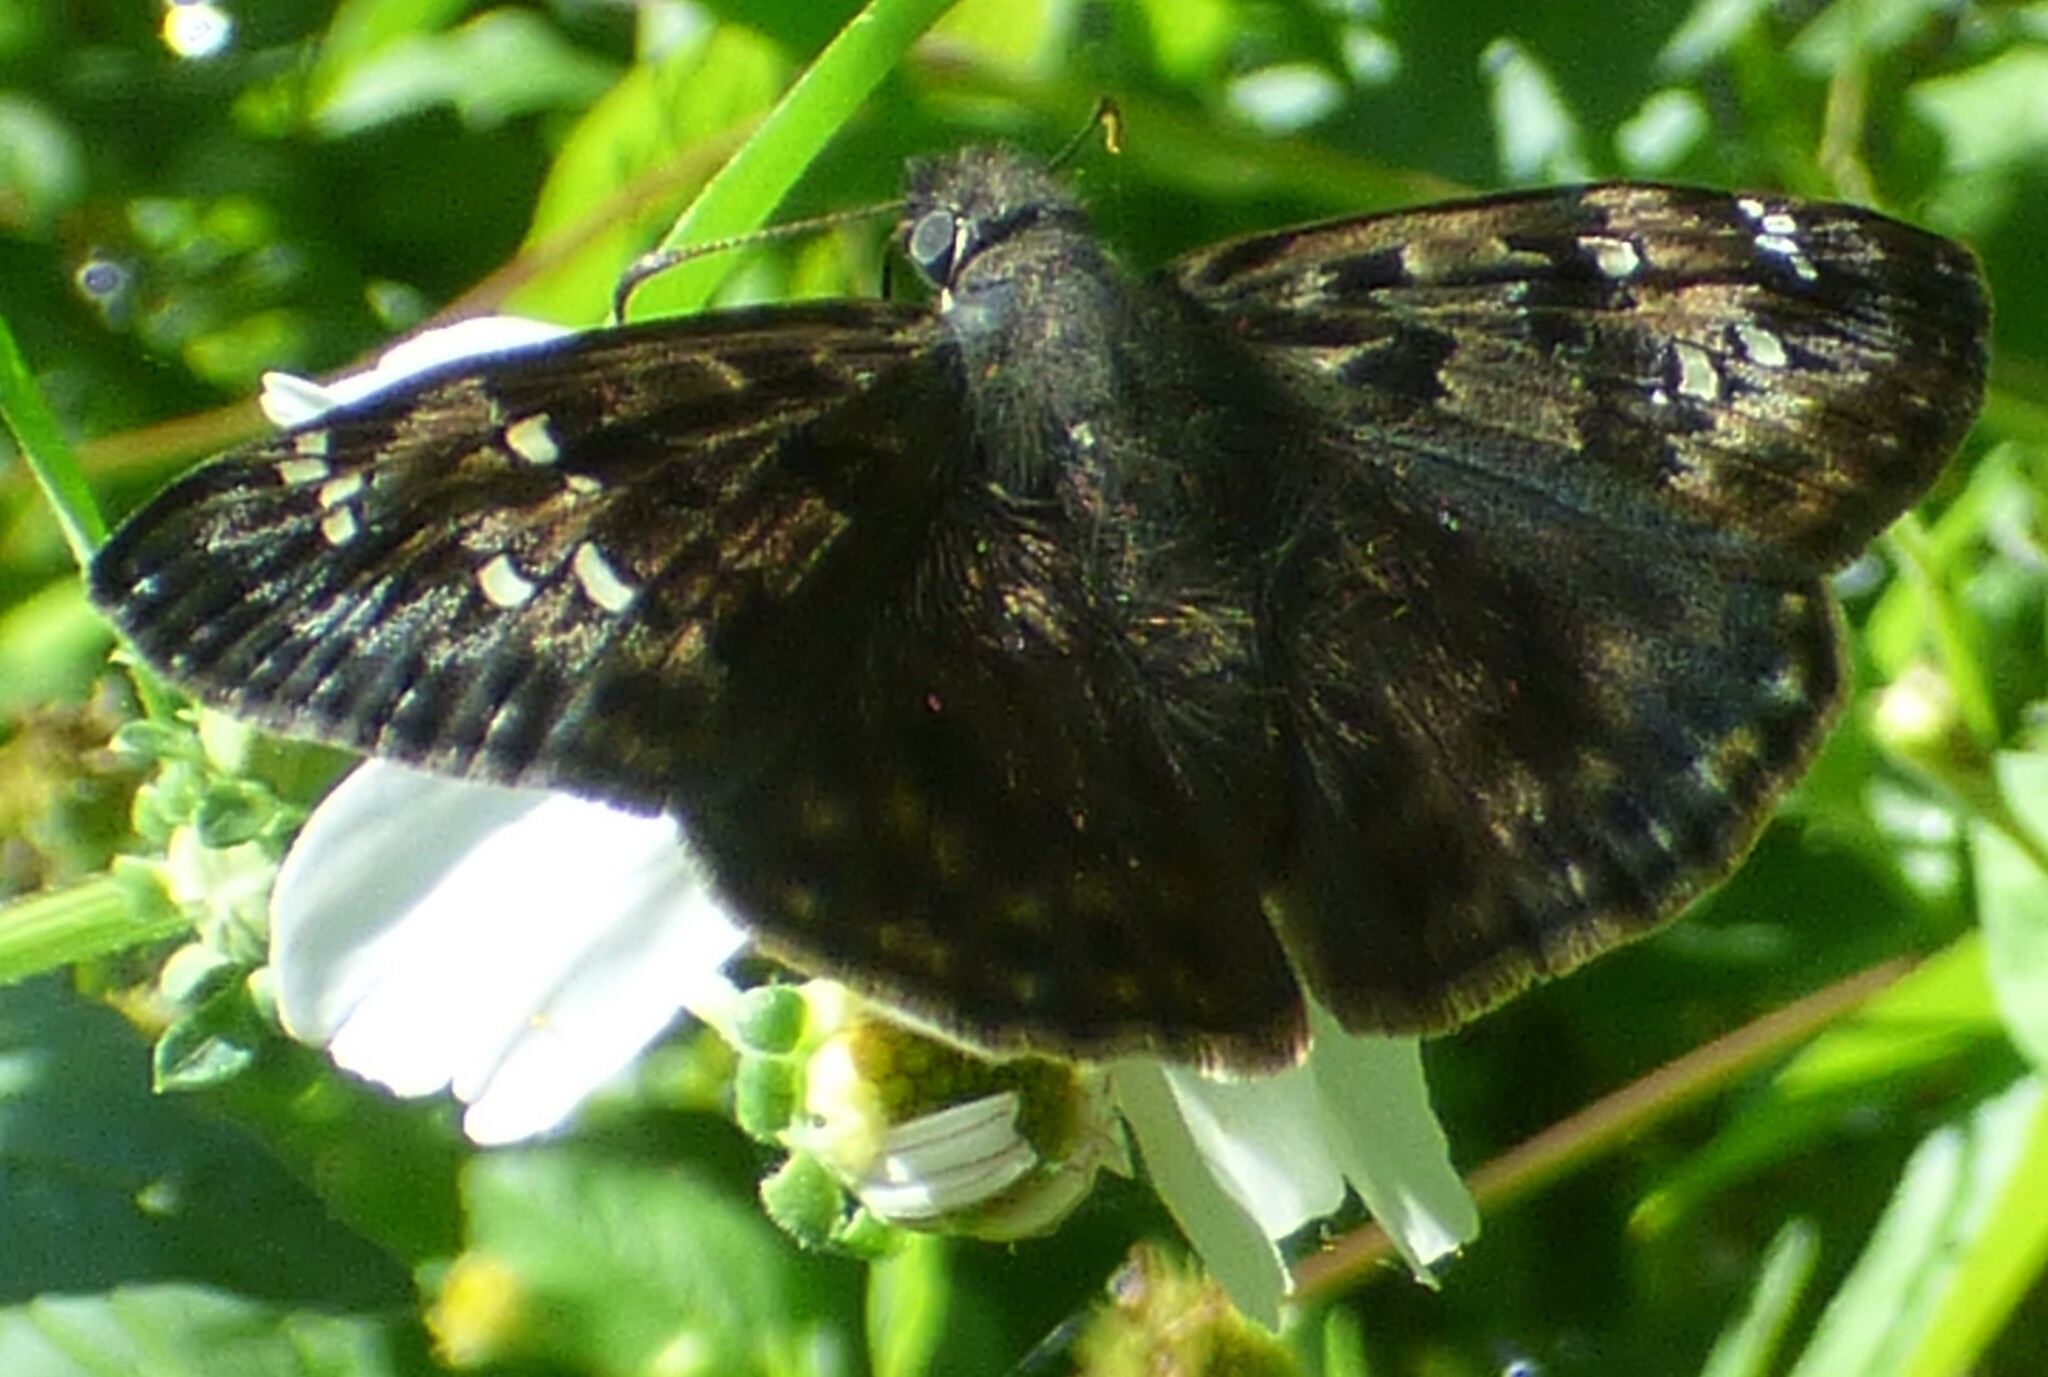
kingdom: Animalia
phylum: Arthropoda
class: Insecta
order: Lepidoptera
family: Hesperiidae
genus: Erynnis
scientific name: Erynnis horatius
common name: Horace's duskywing
